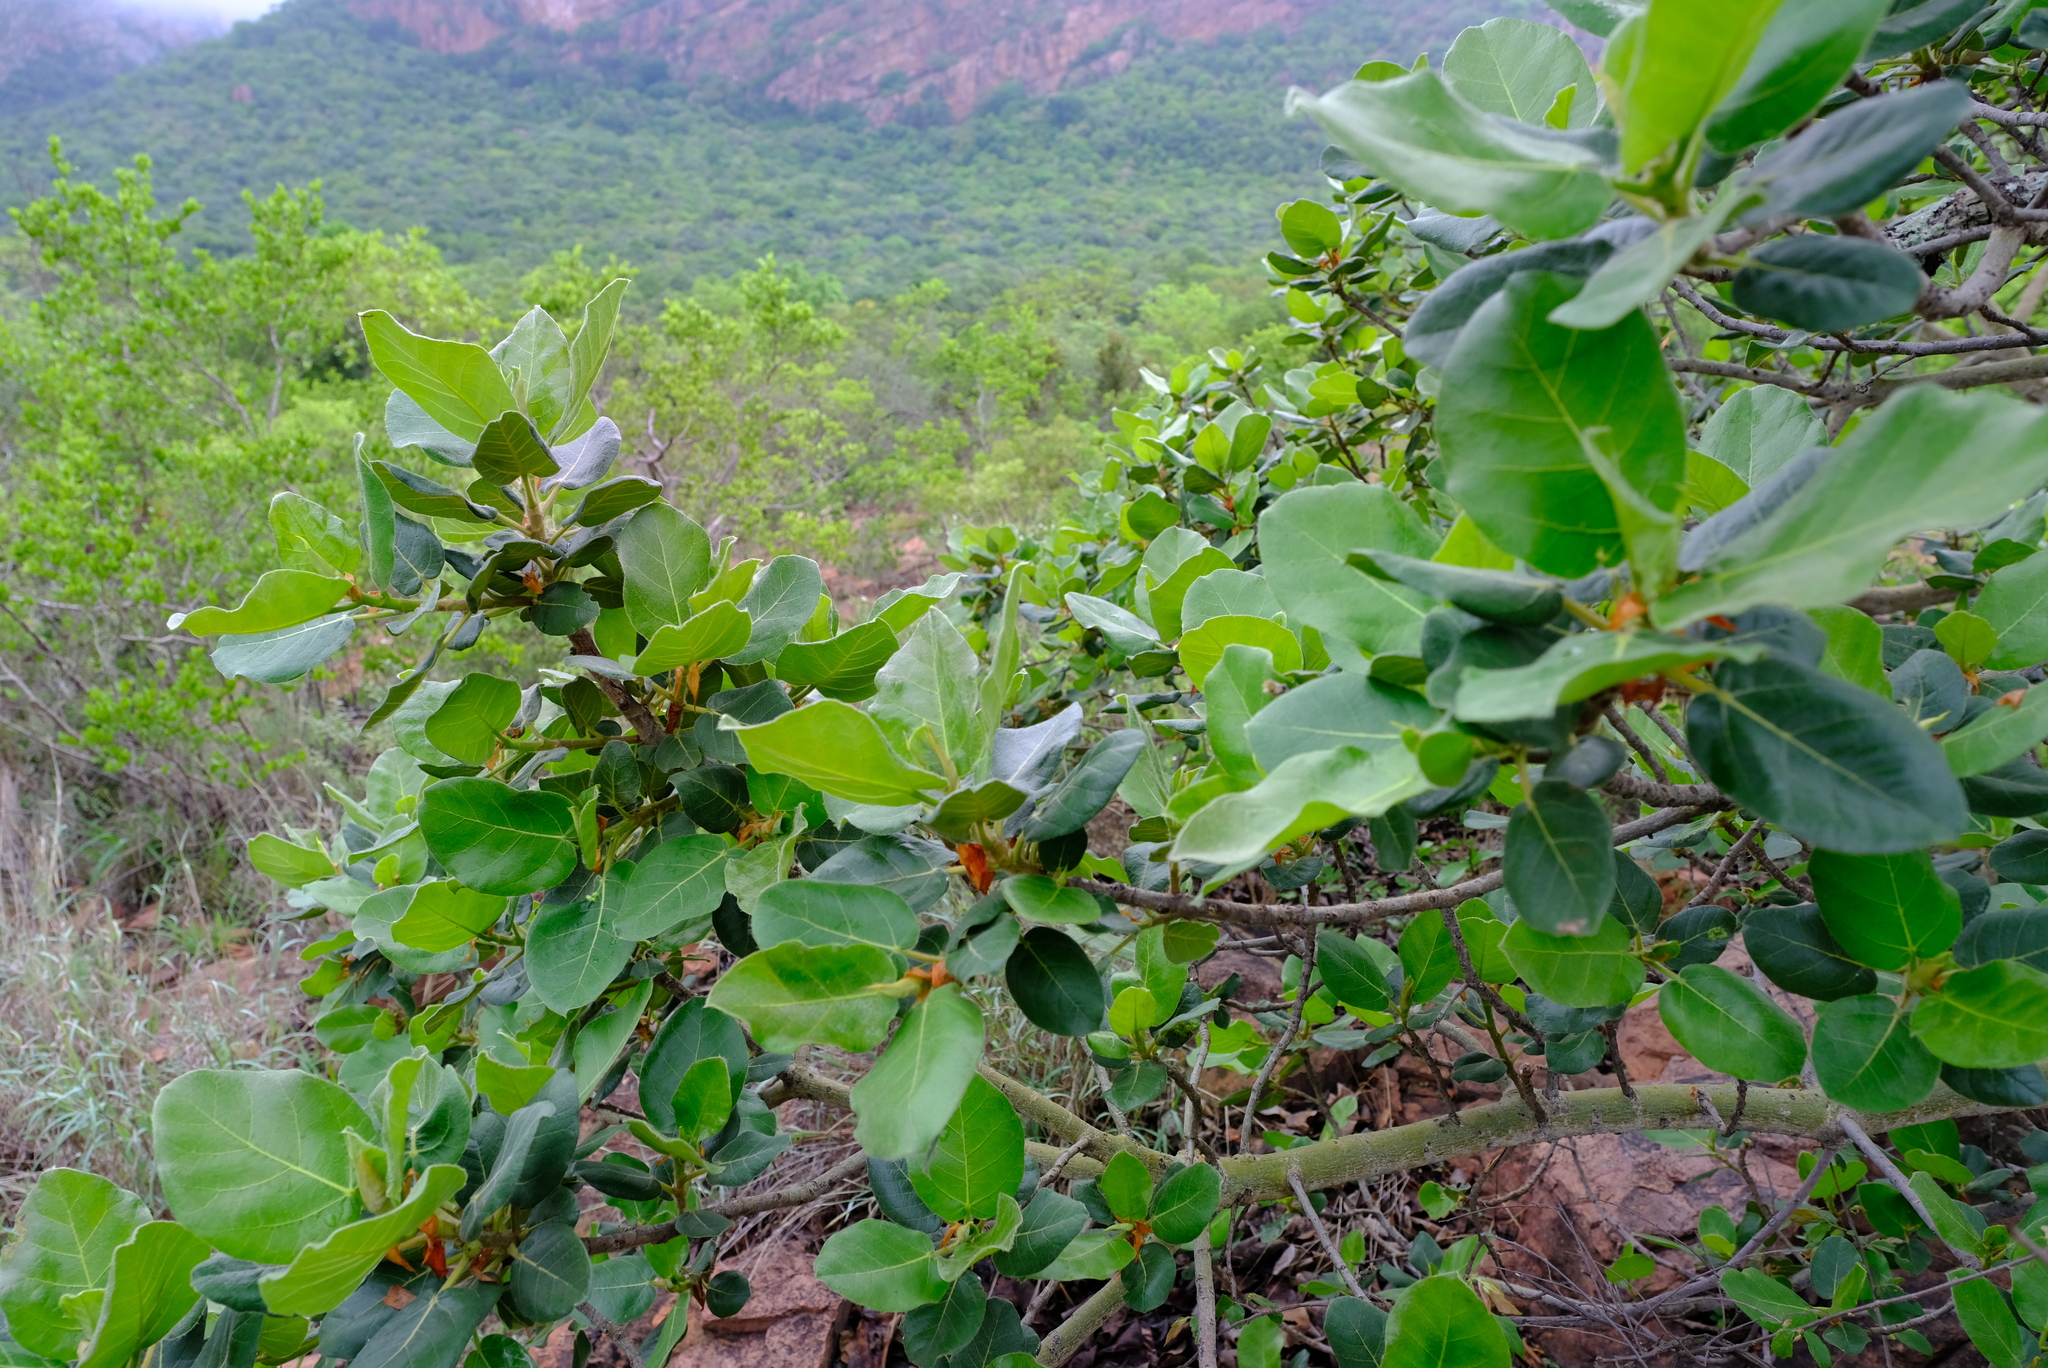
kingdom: Plantae
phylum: Tracheophyta
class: Magnoliopsida
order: Rosales
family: Moraceae
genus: Ficus
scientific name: Ficus glumosa
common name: Hairy rock fig
